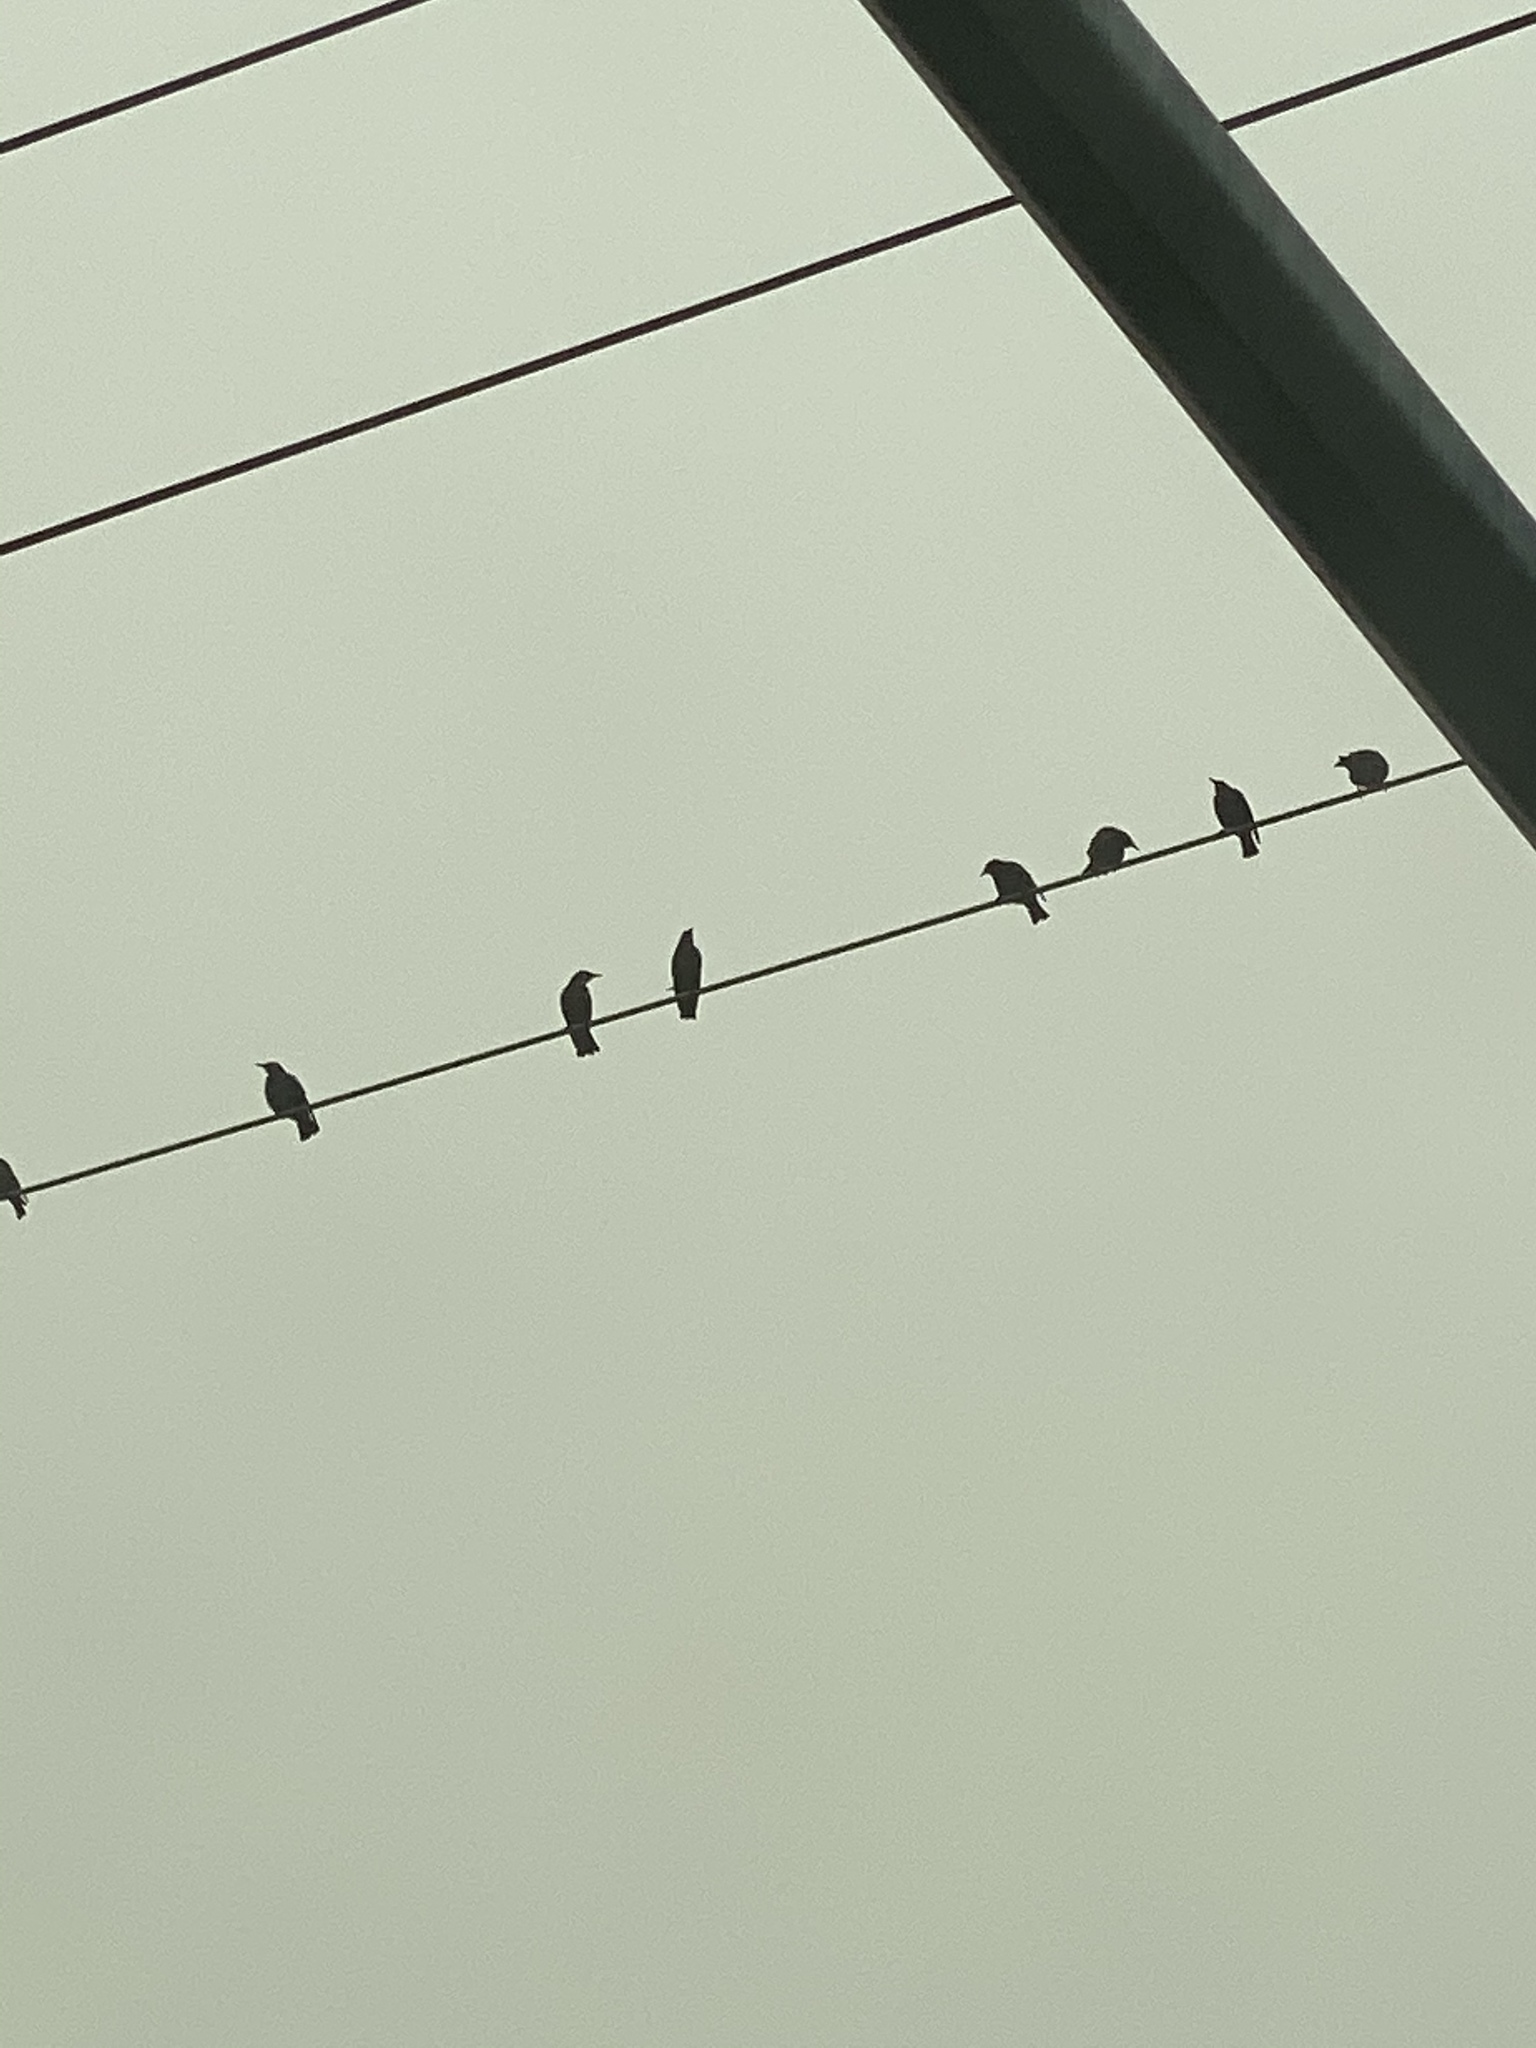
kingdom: Animalia
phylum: Chordata
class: Aves
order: Passeriformes
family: Sturnidae
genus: Sturnus
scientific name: Sturnus vulgaris
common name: Common starling
